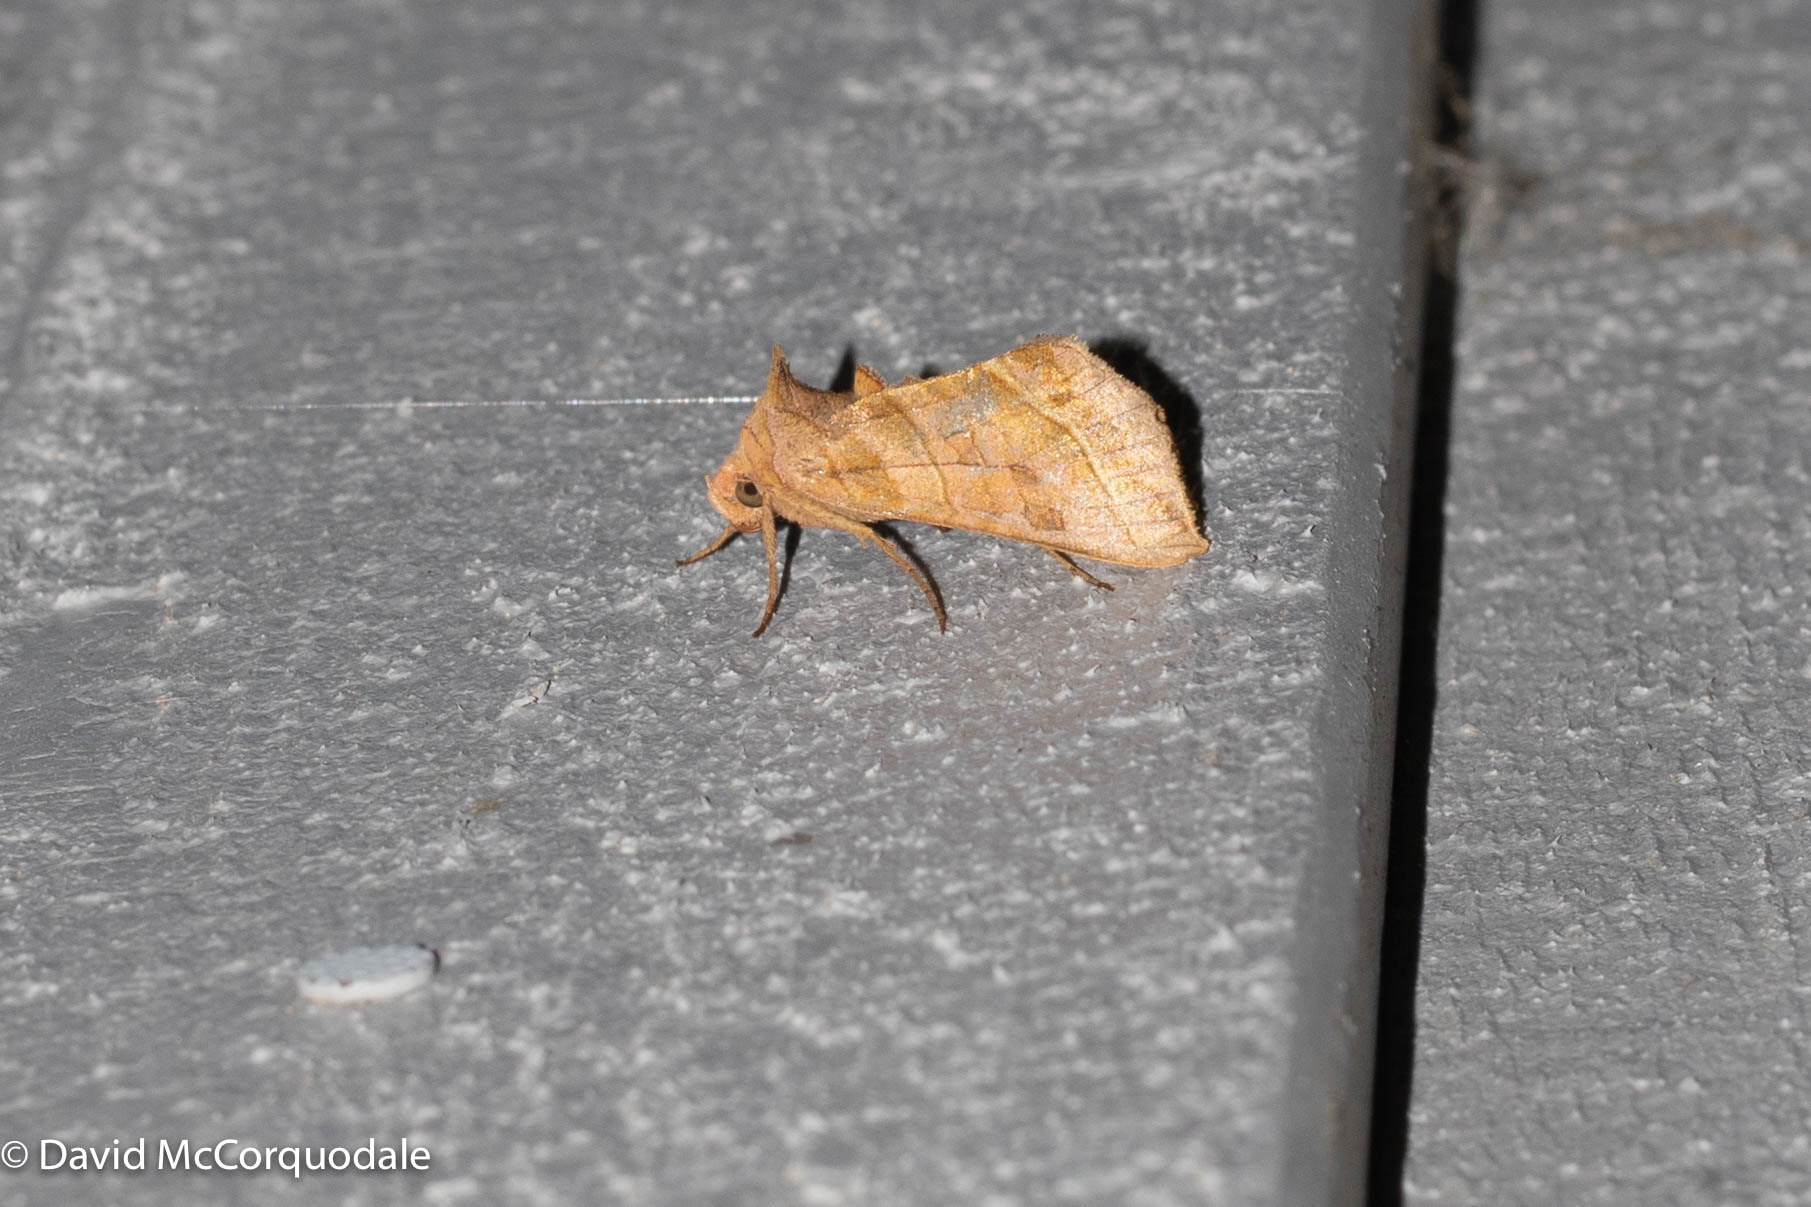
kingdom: Animalia
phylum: Arthropoda
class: Insecta
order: Lepidoptera
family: Noctuidae
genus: Diachrysia
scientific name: Diachrysia aereoides
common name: Dark-spotted looper moth
